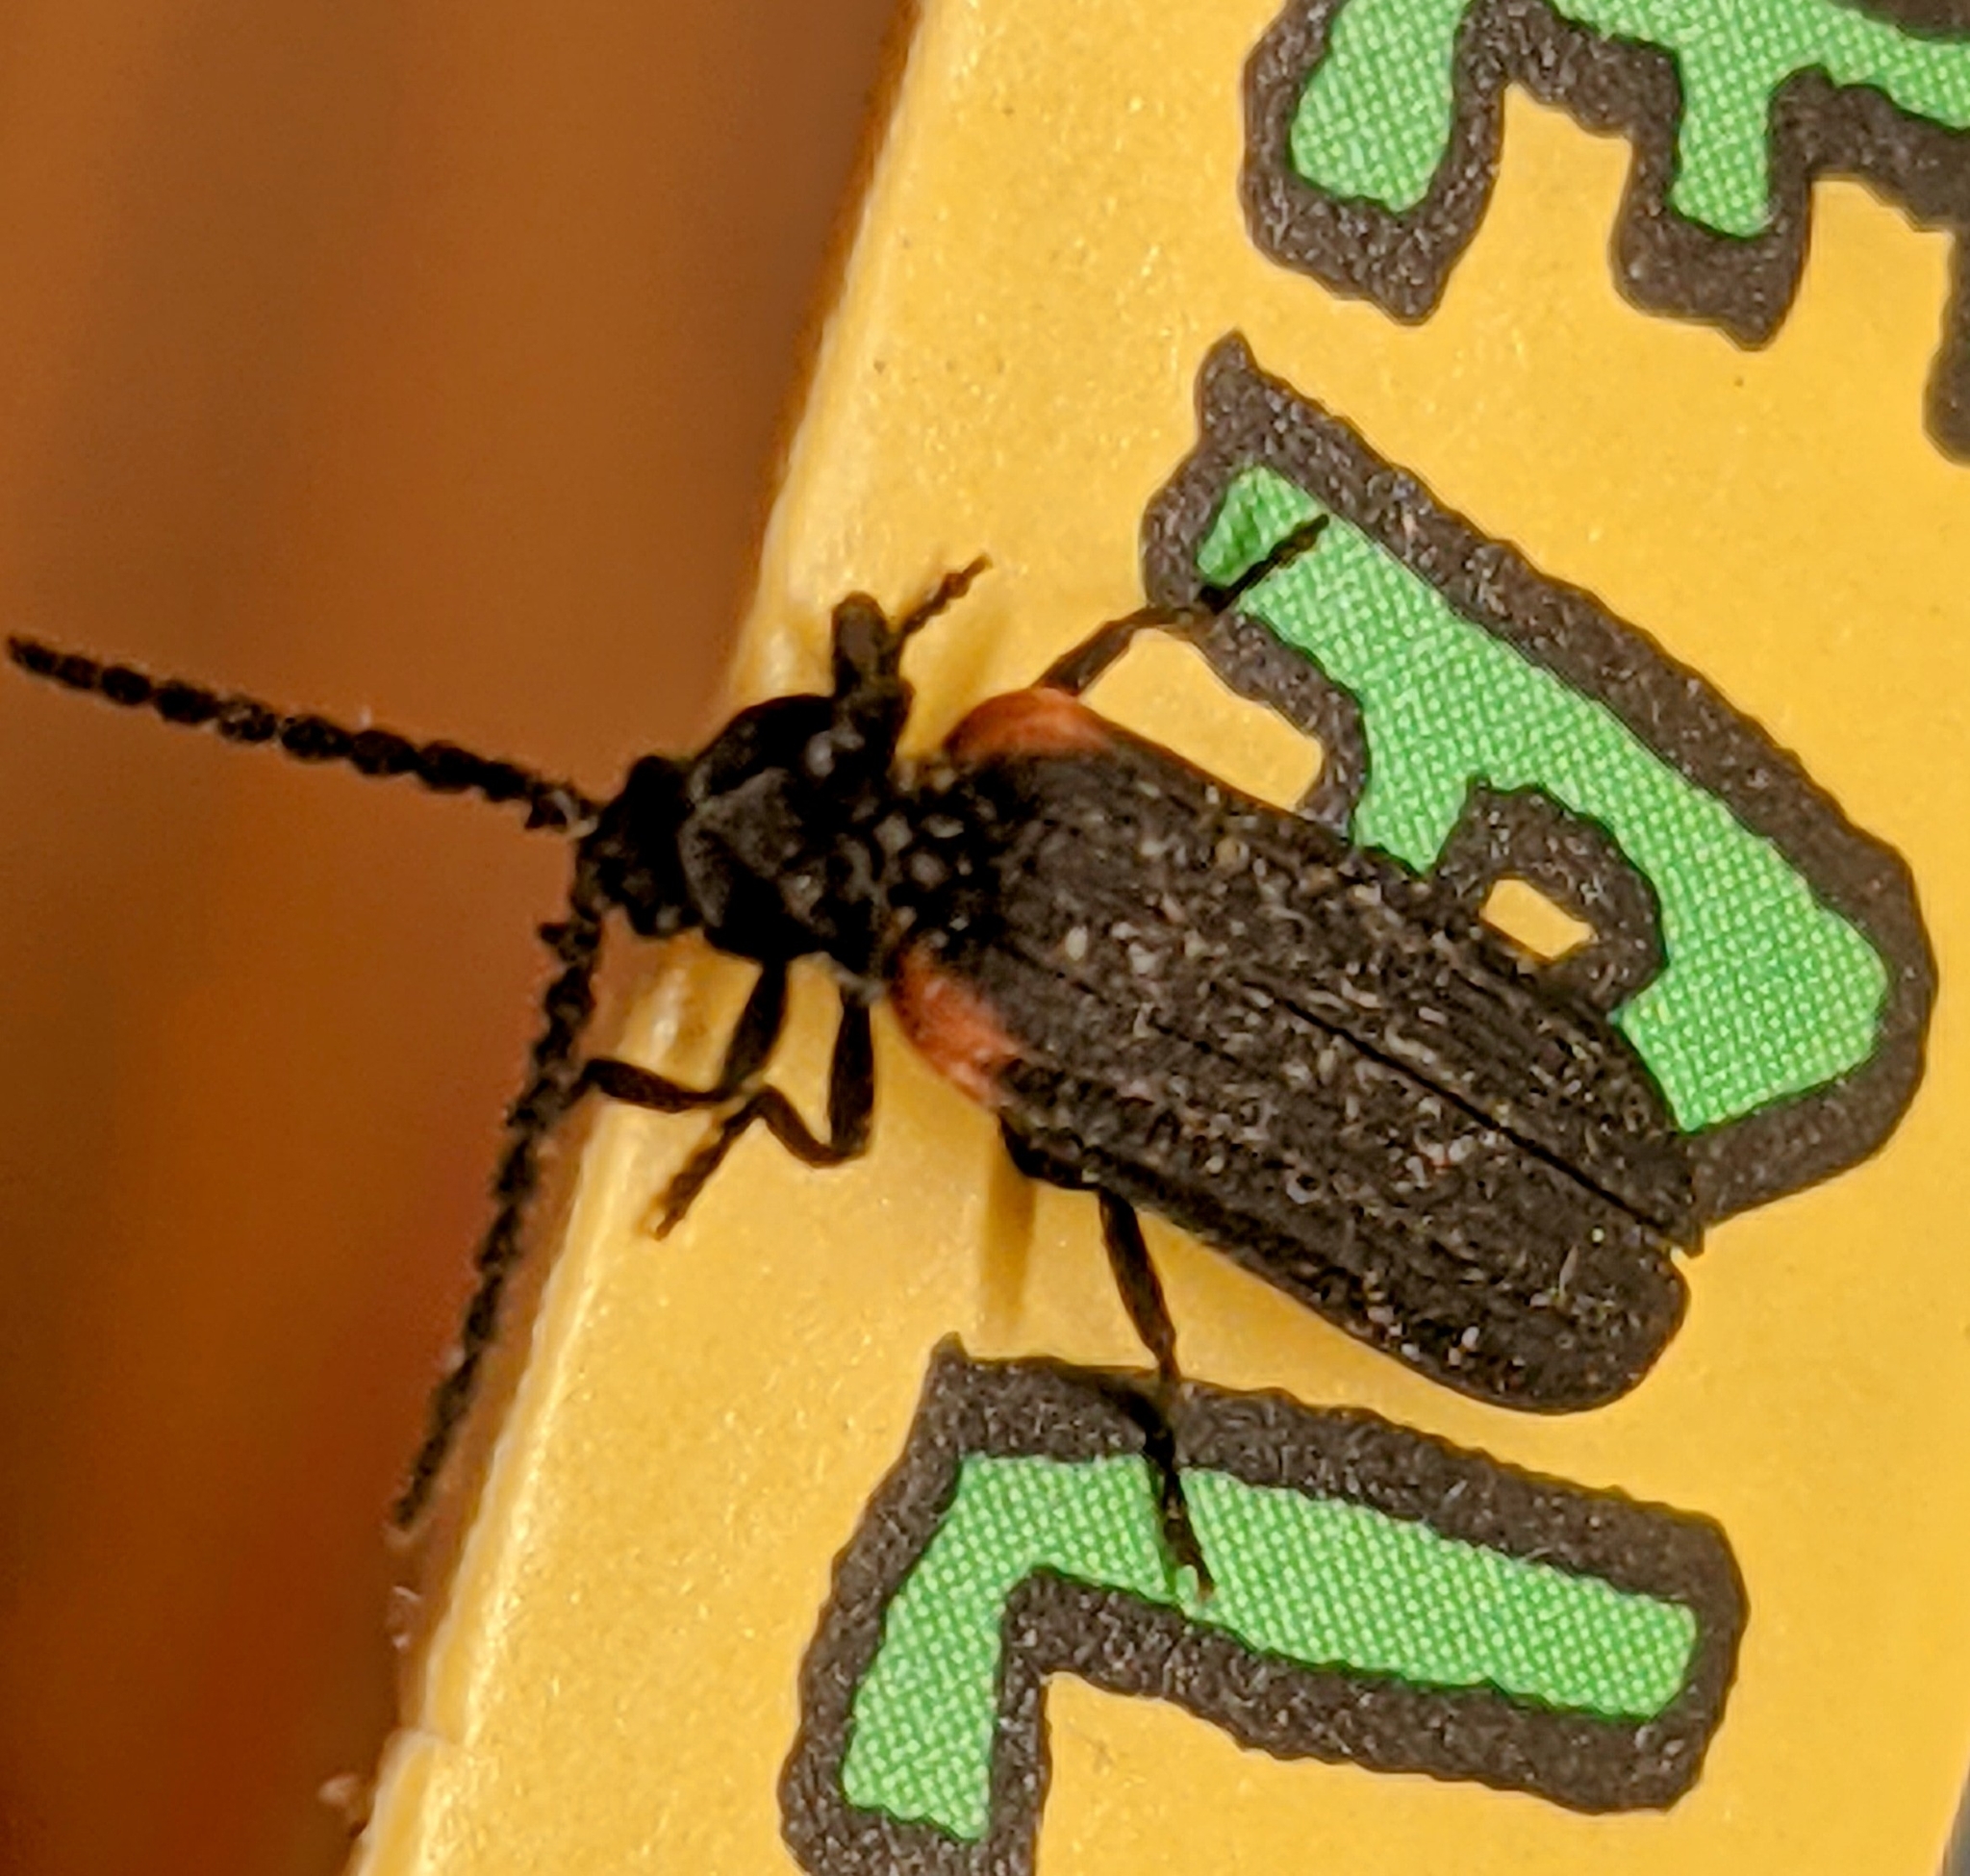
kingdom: Animalia
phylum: Arthropoda
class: Insecta
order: Coleoptera
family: Lycidae
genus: Greenarus
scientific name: Greenarus thoracicus
